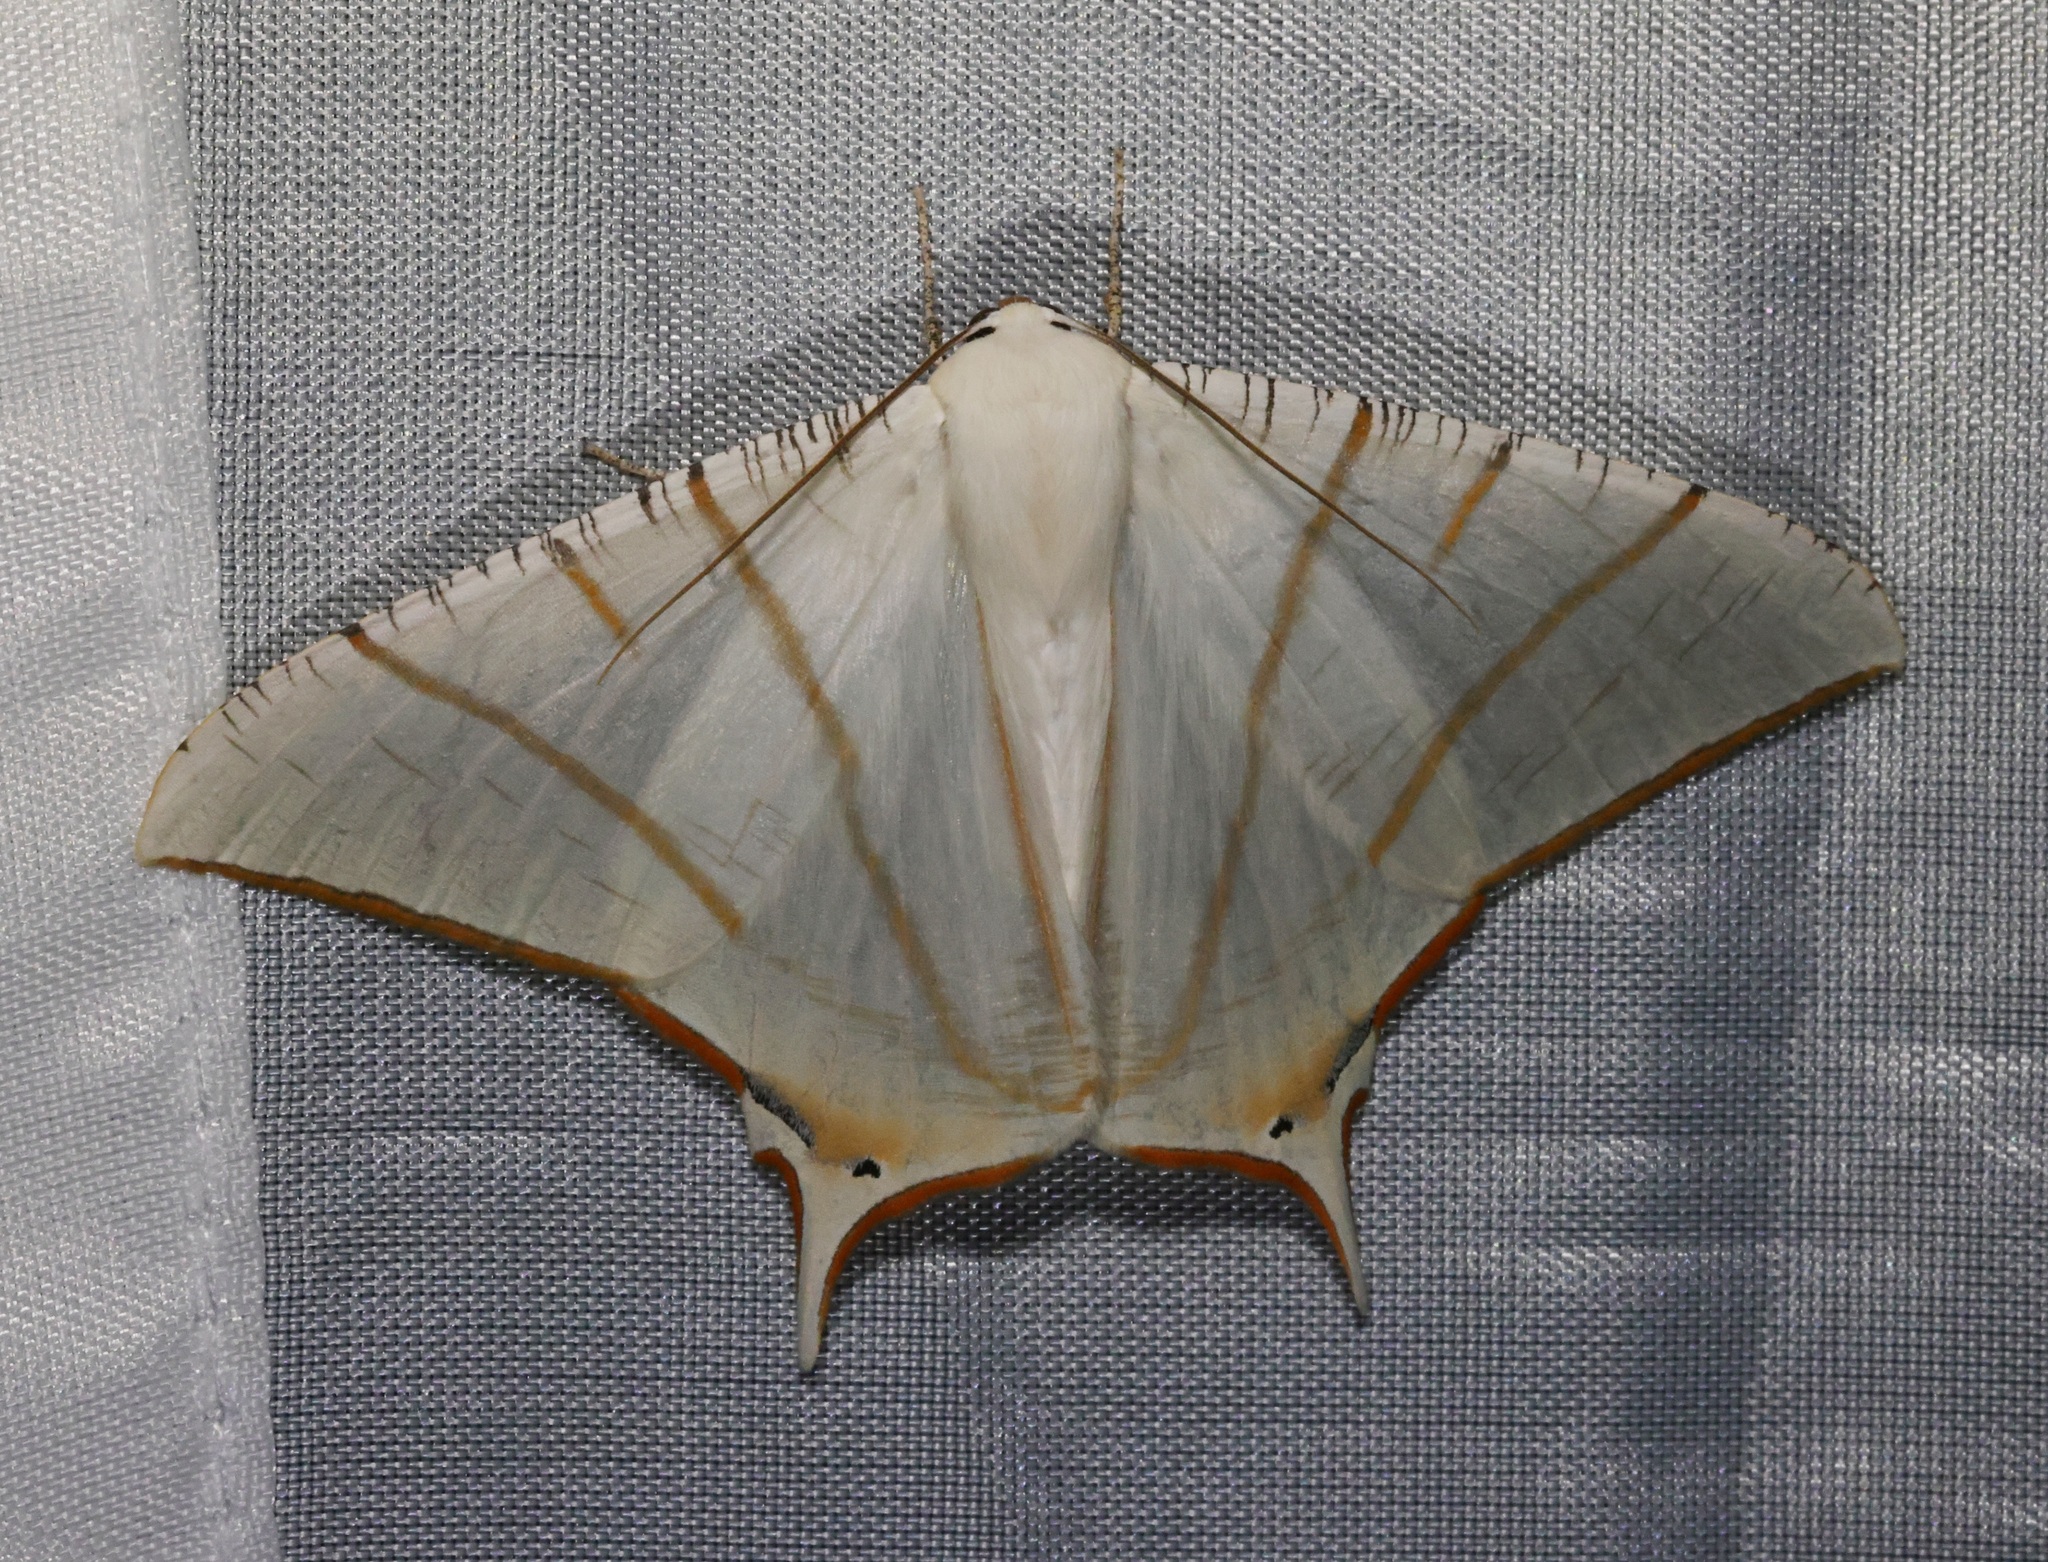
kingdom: Animalia
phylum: Arthropoda
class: Insecta
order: Lepidoptera
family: Geometridae
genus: Ourapteryx
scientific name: Ourapteryx clara
